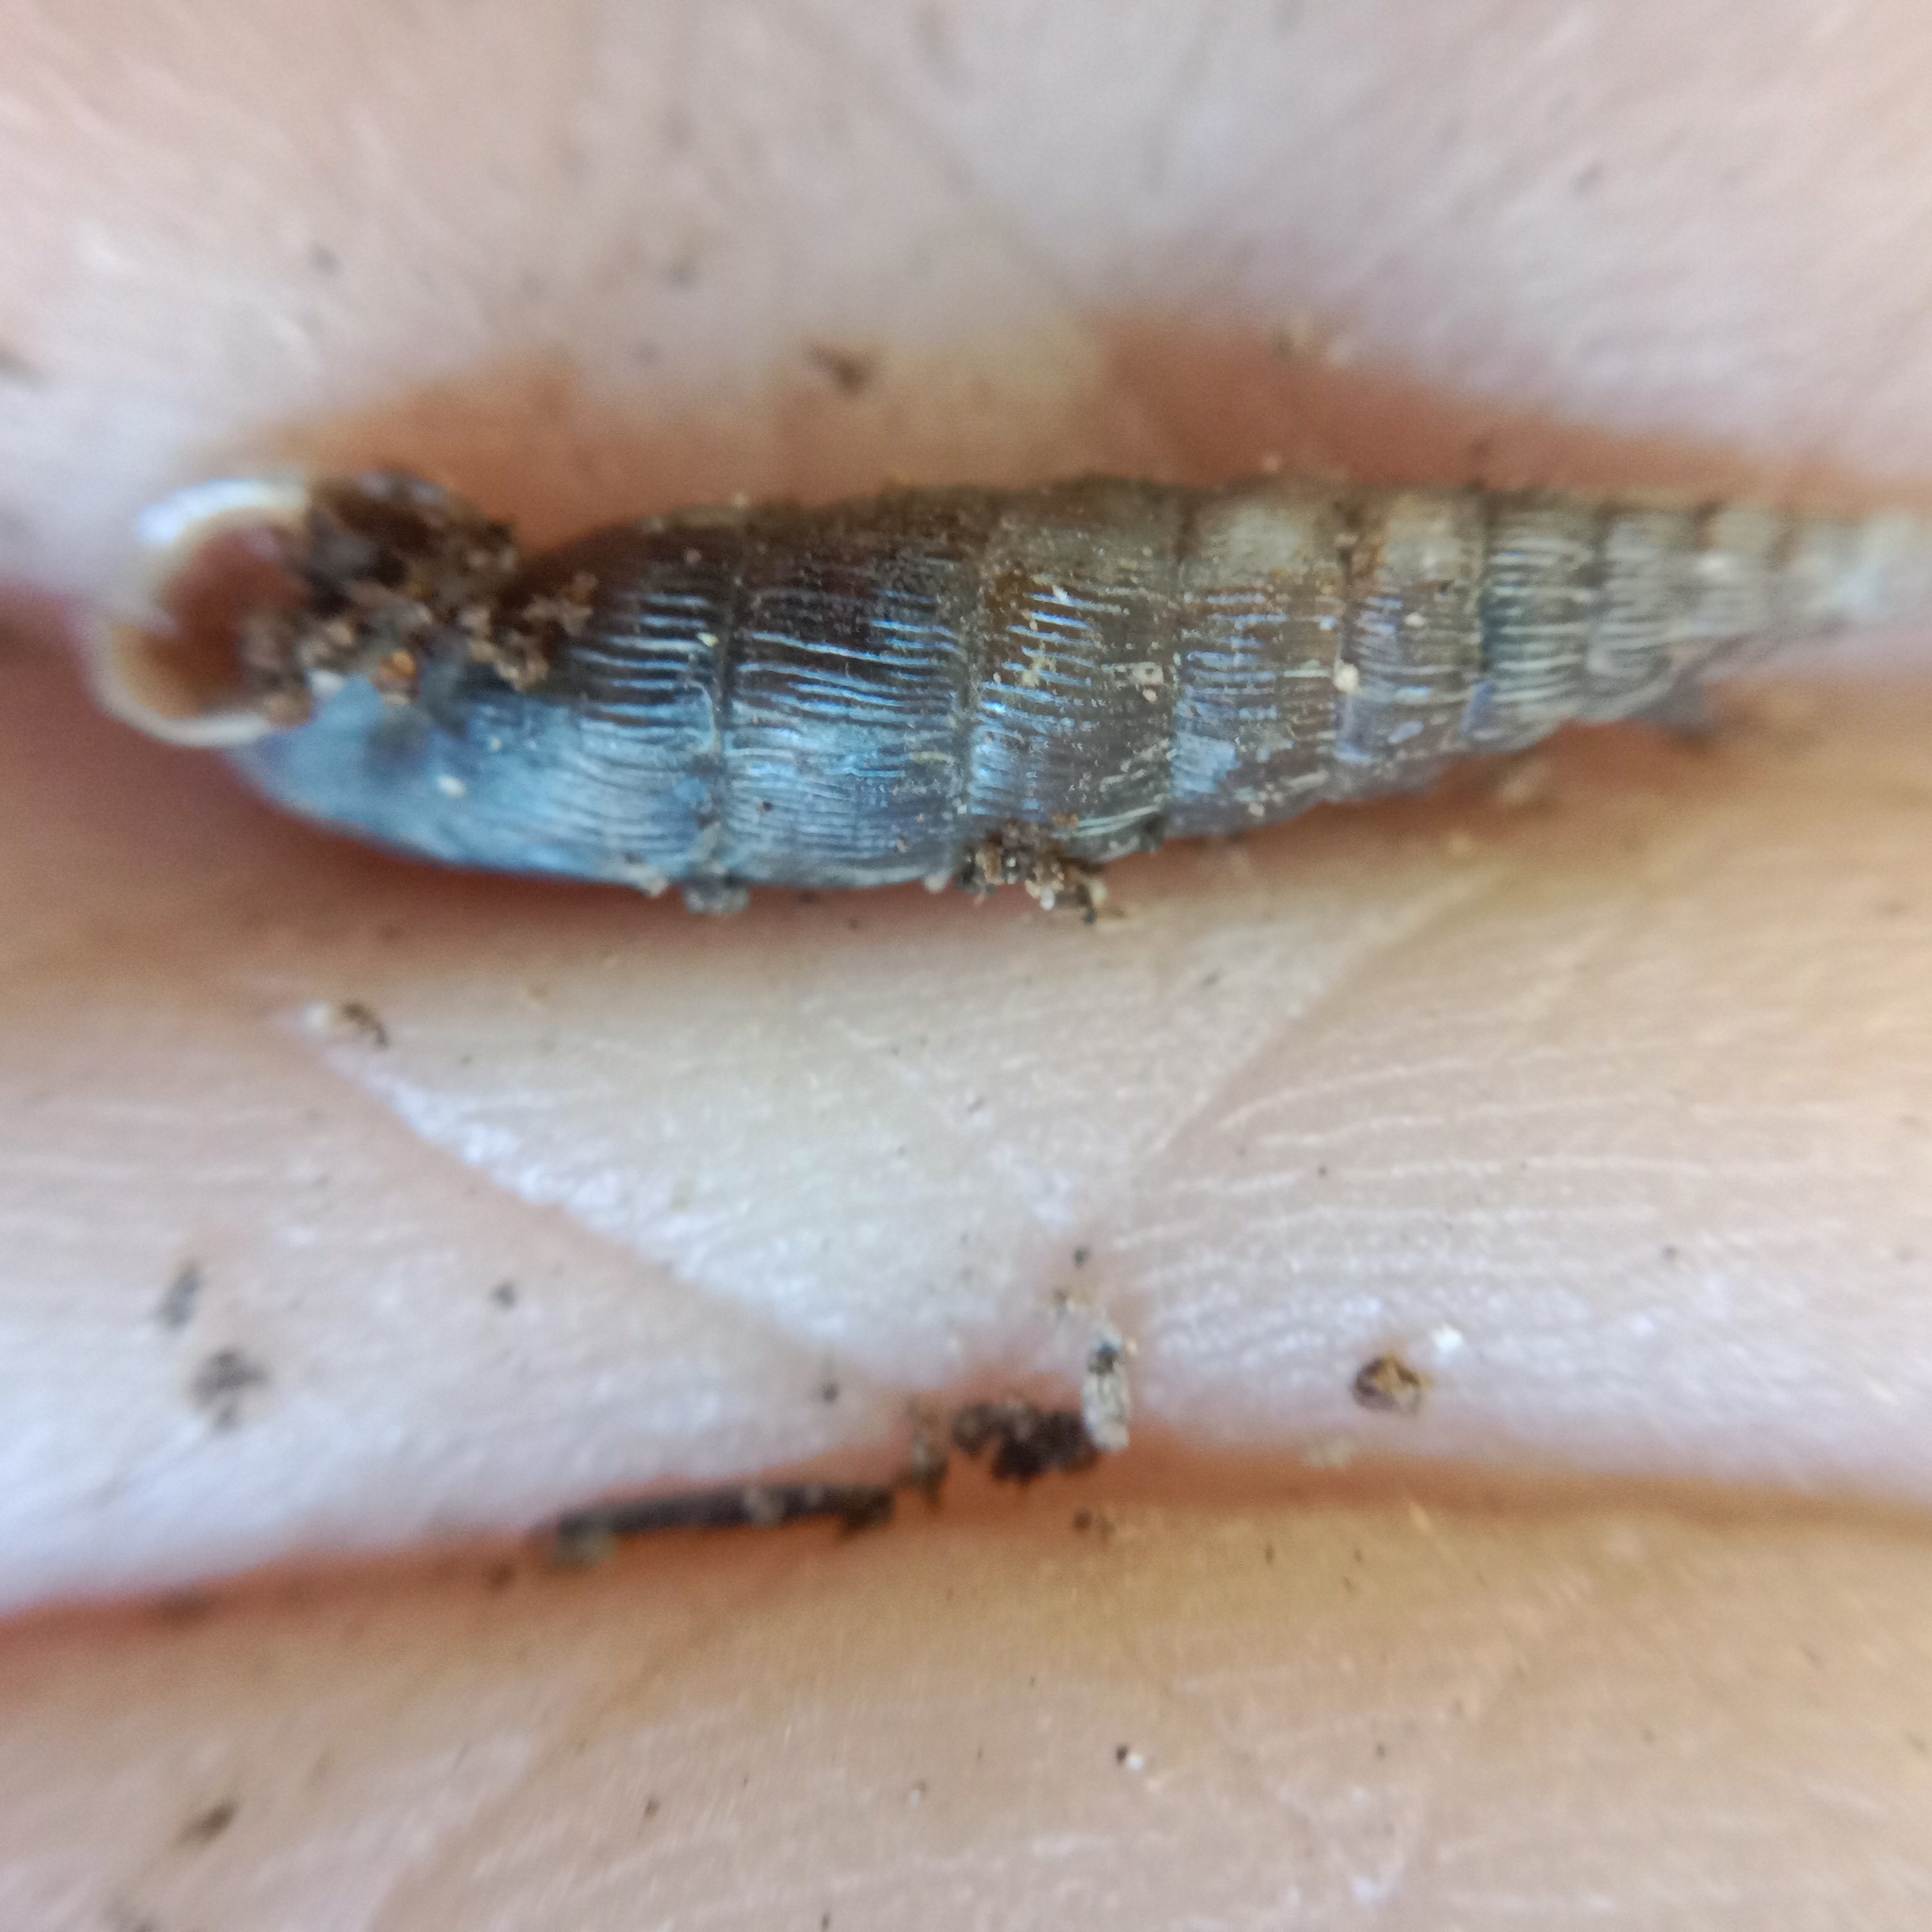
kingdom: Animalia
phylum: Mollusca
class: Gastropoda
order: Stylommatophora
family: Clausiliidae
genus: Laciniaria
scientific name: Laciniaria plicata
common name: Single-lipped door snail
